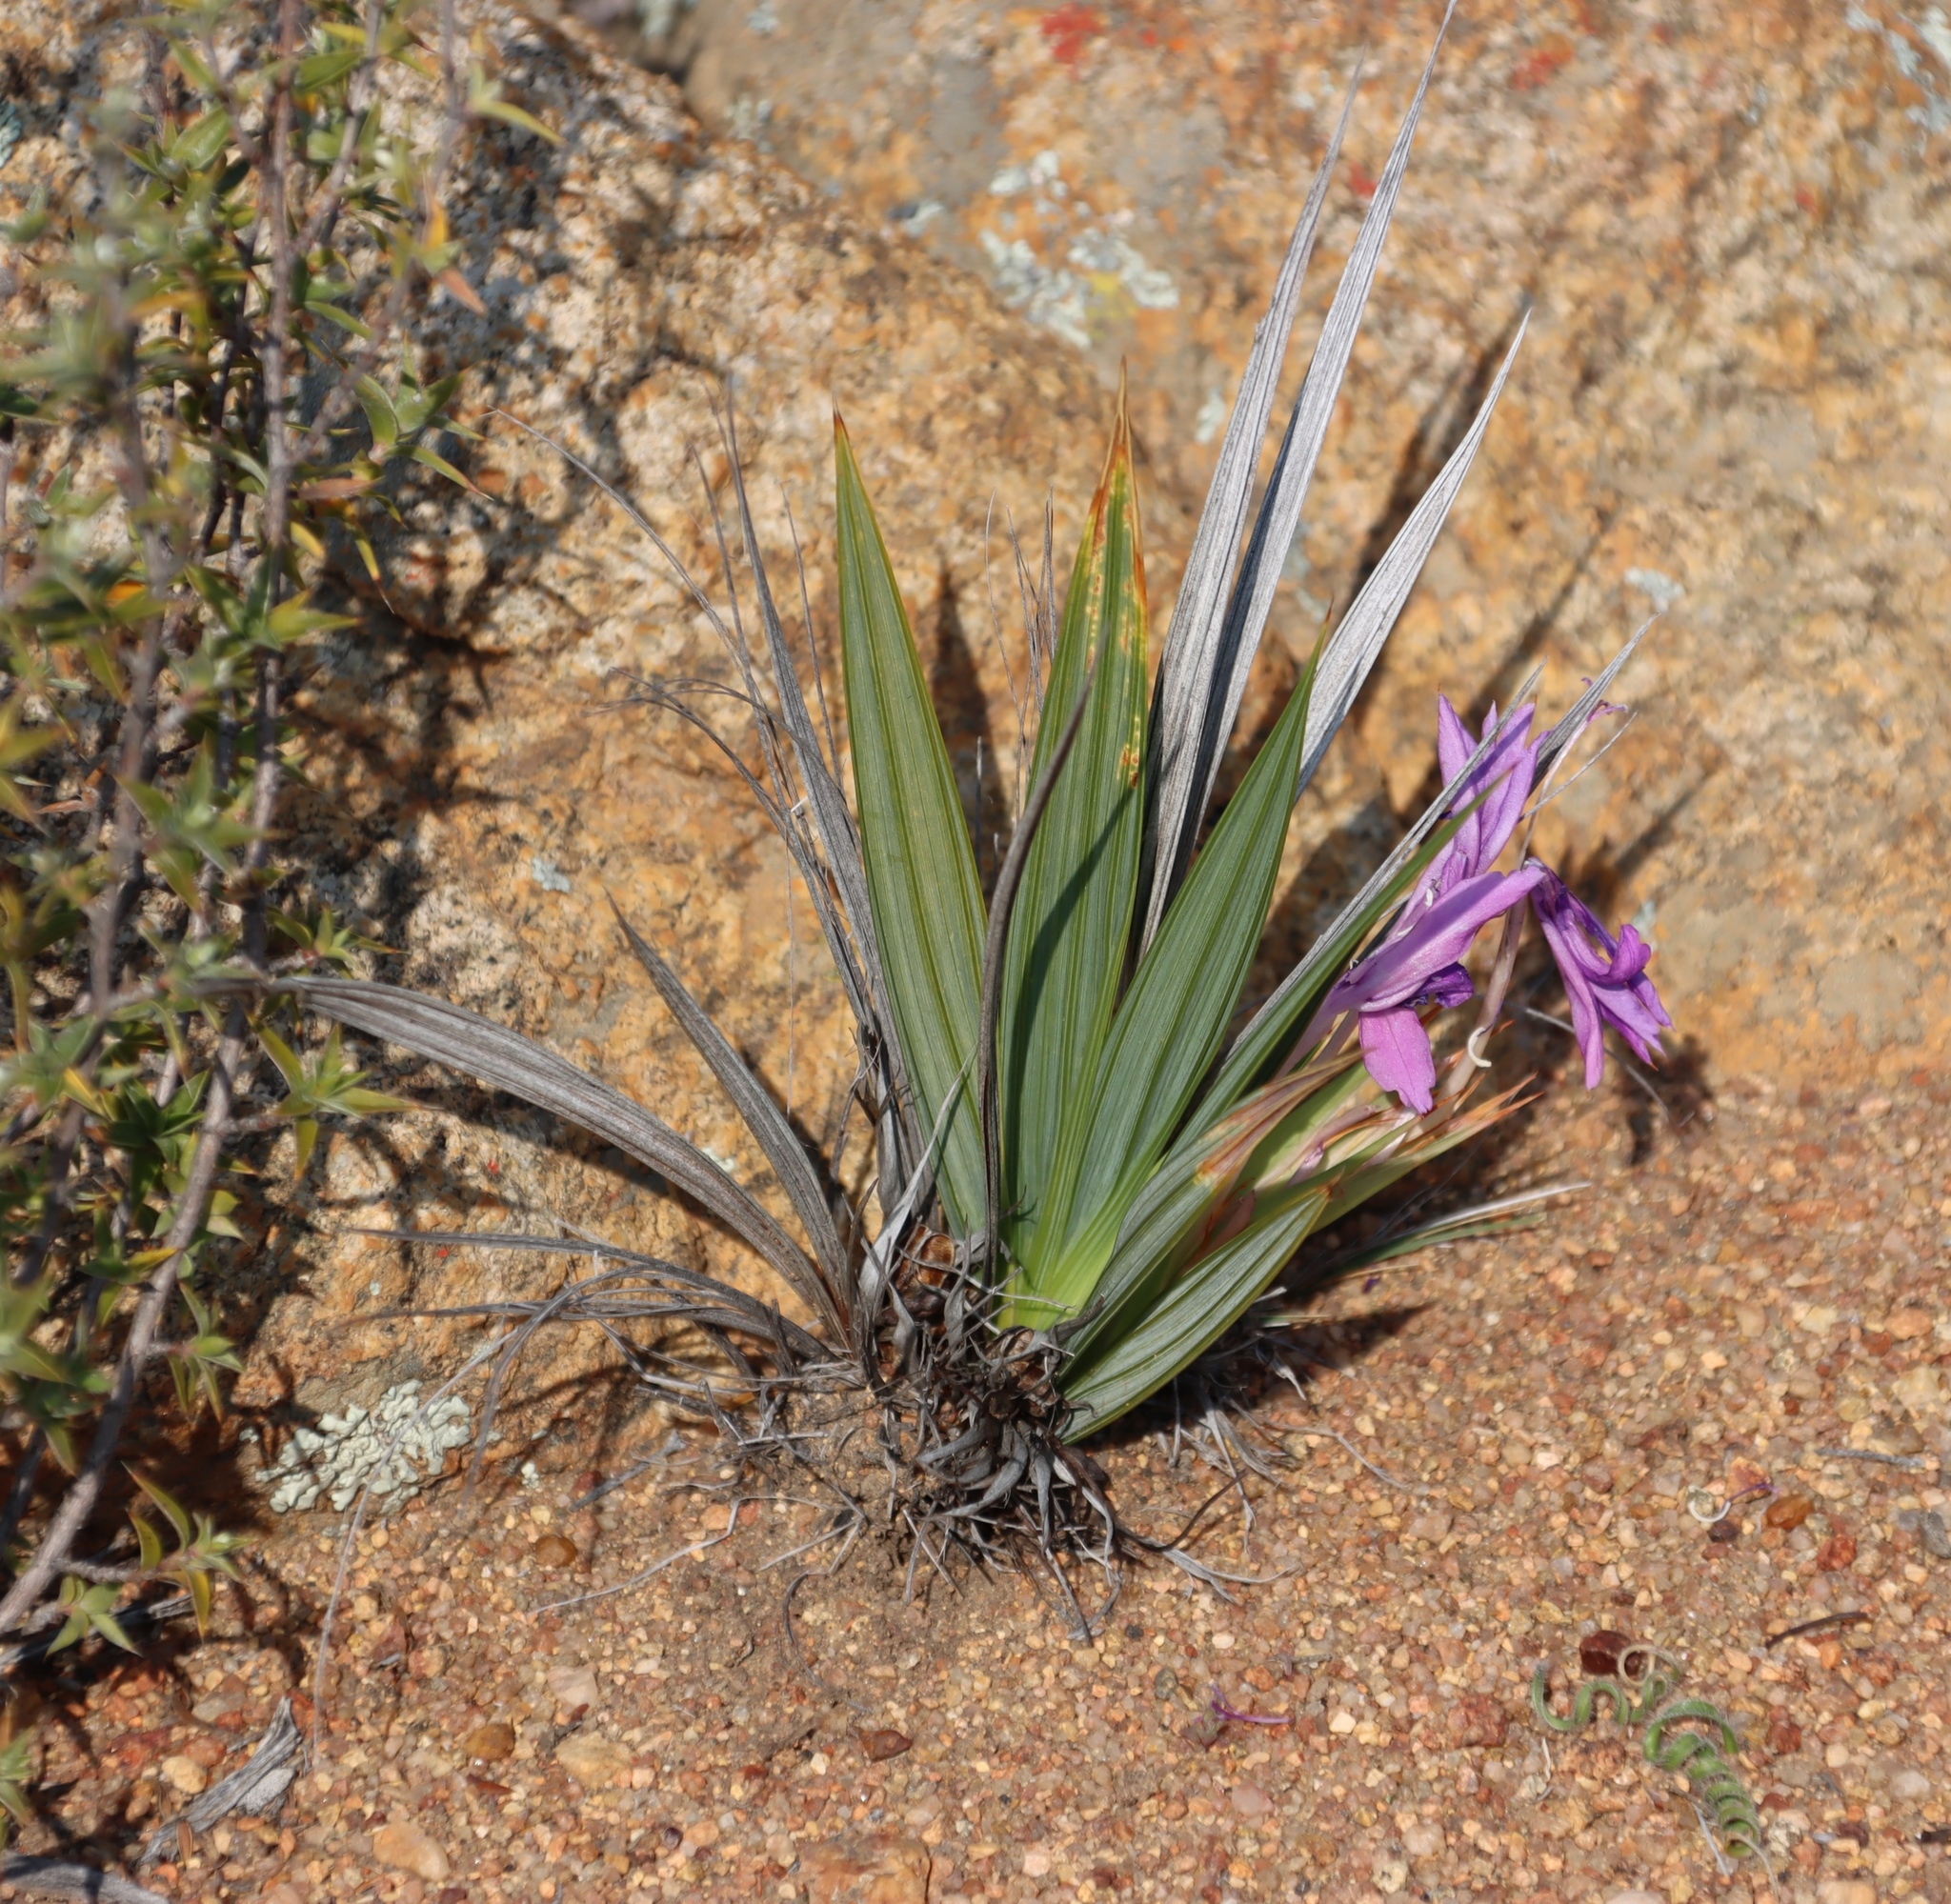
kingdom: Plantae
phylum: Tracheophyta
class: Liliopsida
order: Asparagales
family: Iridaceae
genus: Babiana
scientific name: Babiana dregei
